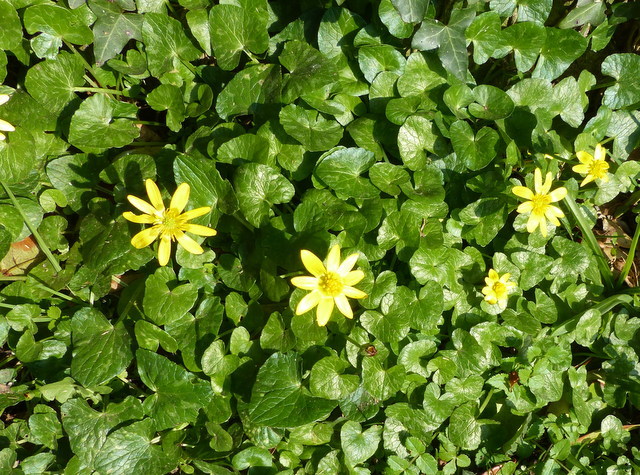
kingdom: Plantae
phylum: Tracheophyta
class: Magnoliopsida
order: Ranunculales
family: Ranunculaceae
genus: Ficaria
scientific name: Ficaria verna
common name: Lesser celandine
